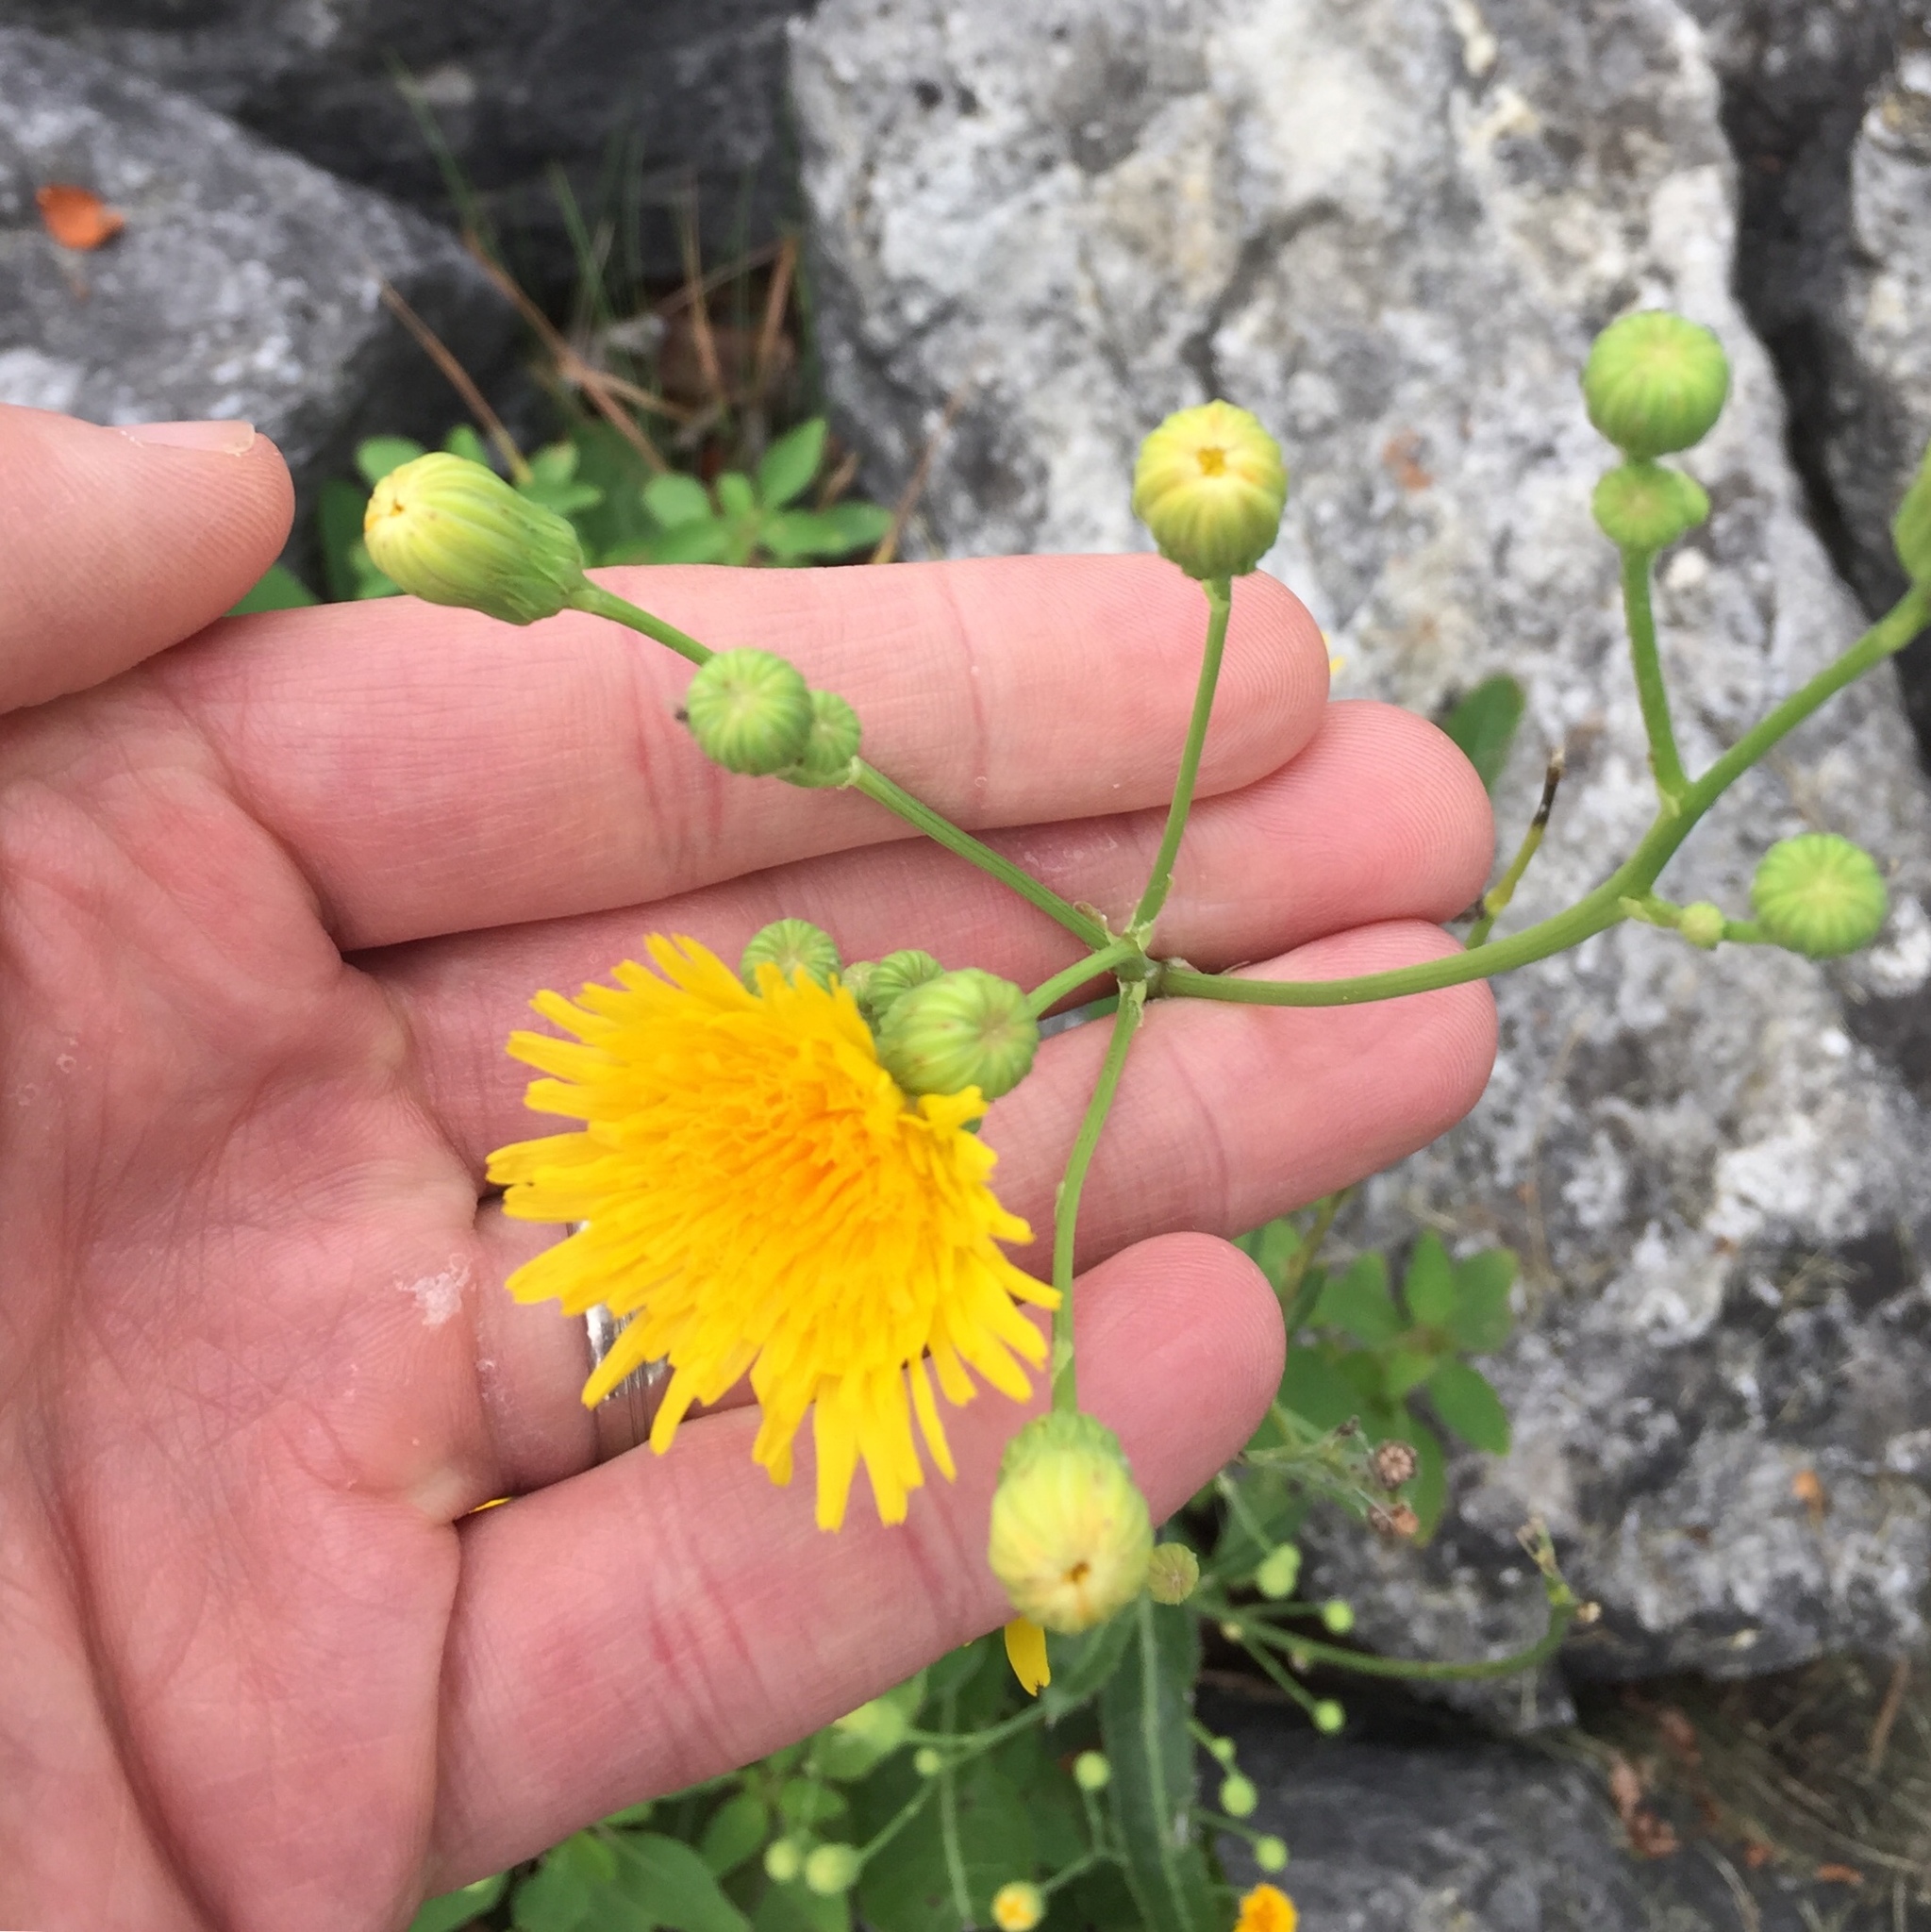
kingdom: Plantae
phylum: Tracheophyta
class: Magnoliopsida
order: Asterales
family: Asteraceae
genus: Sonchus
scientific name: Sonchus arvensis
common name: Perennial sow-thistle
